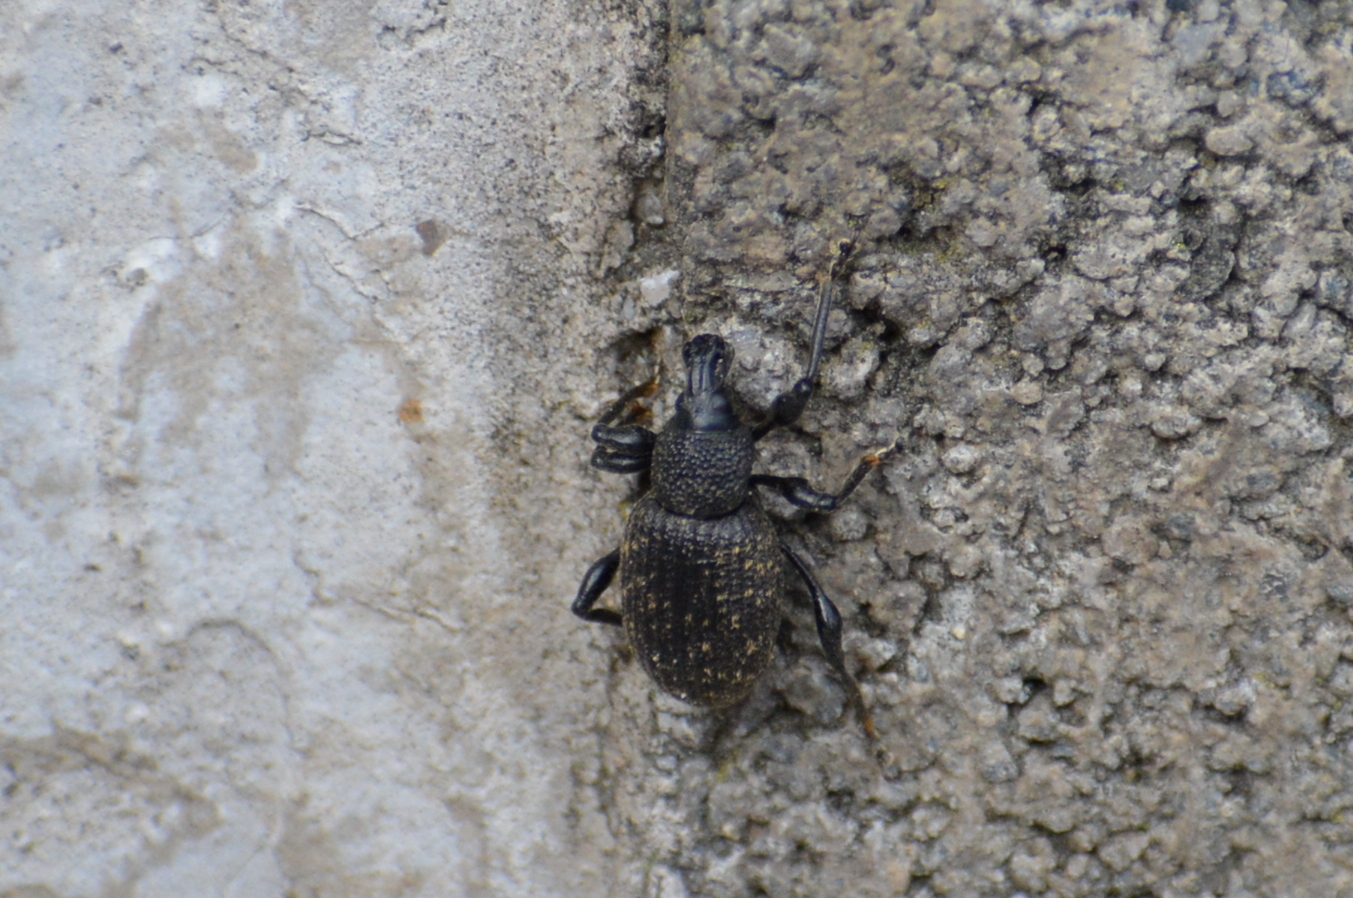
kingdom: Animalia
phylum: Arthropoda
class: Insecta
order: Coleoptera
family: Curculionidae
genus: Otiorhynchus
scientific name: Otiorhynchus sulcatus
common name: Black vine weevil
